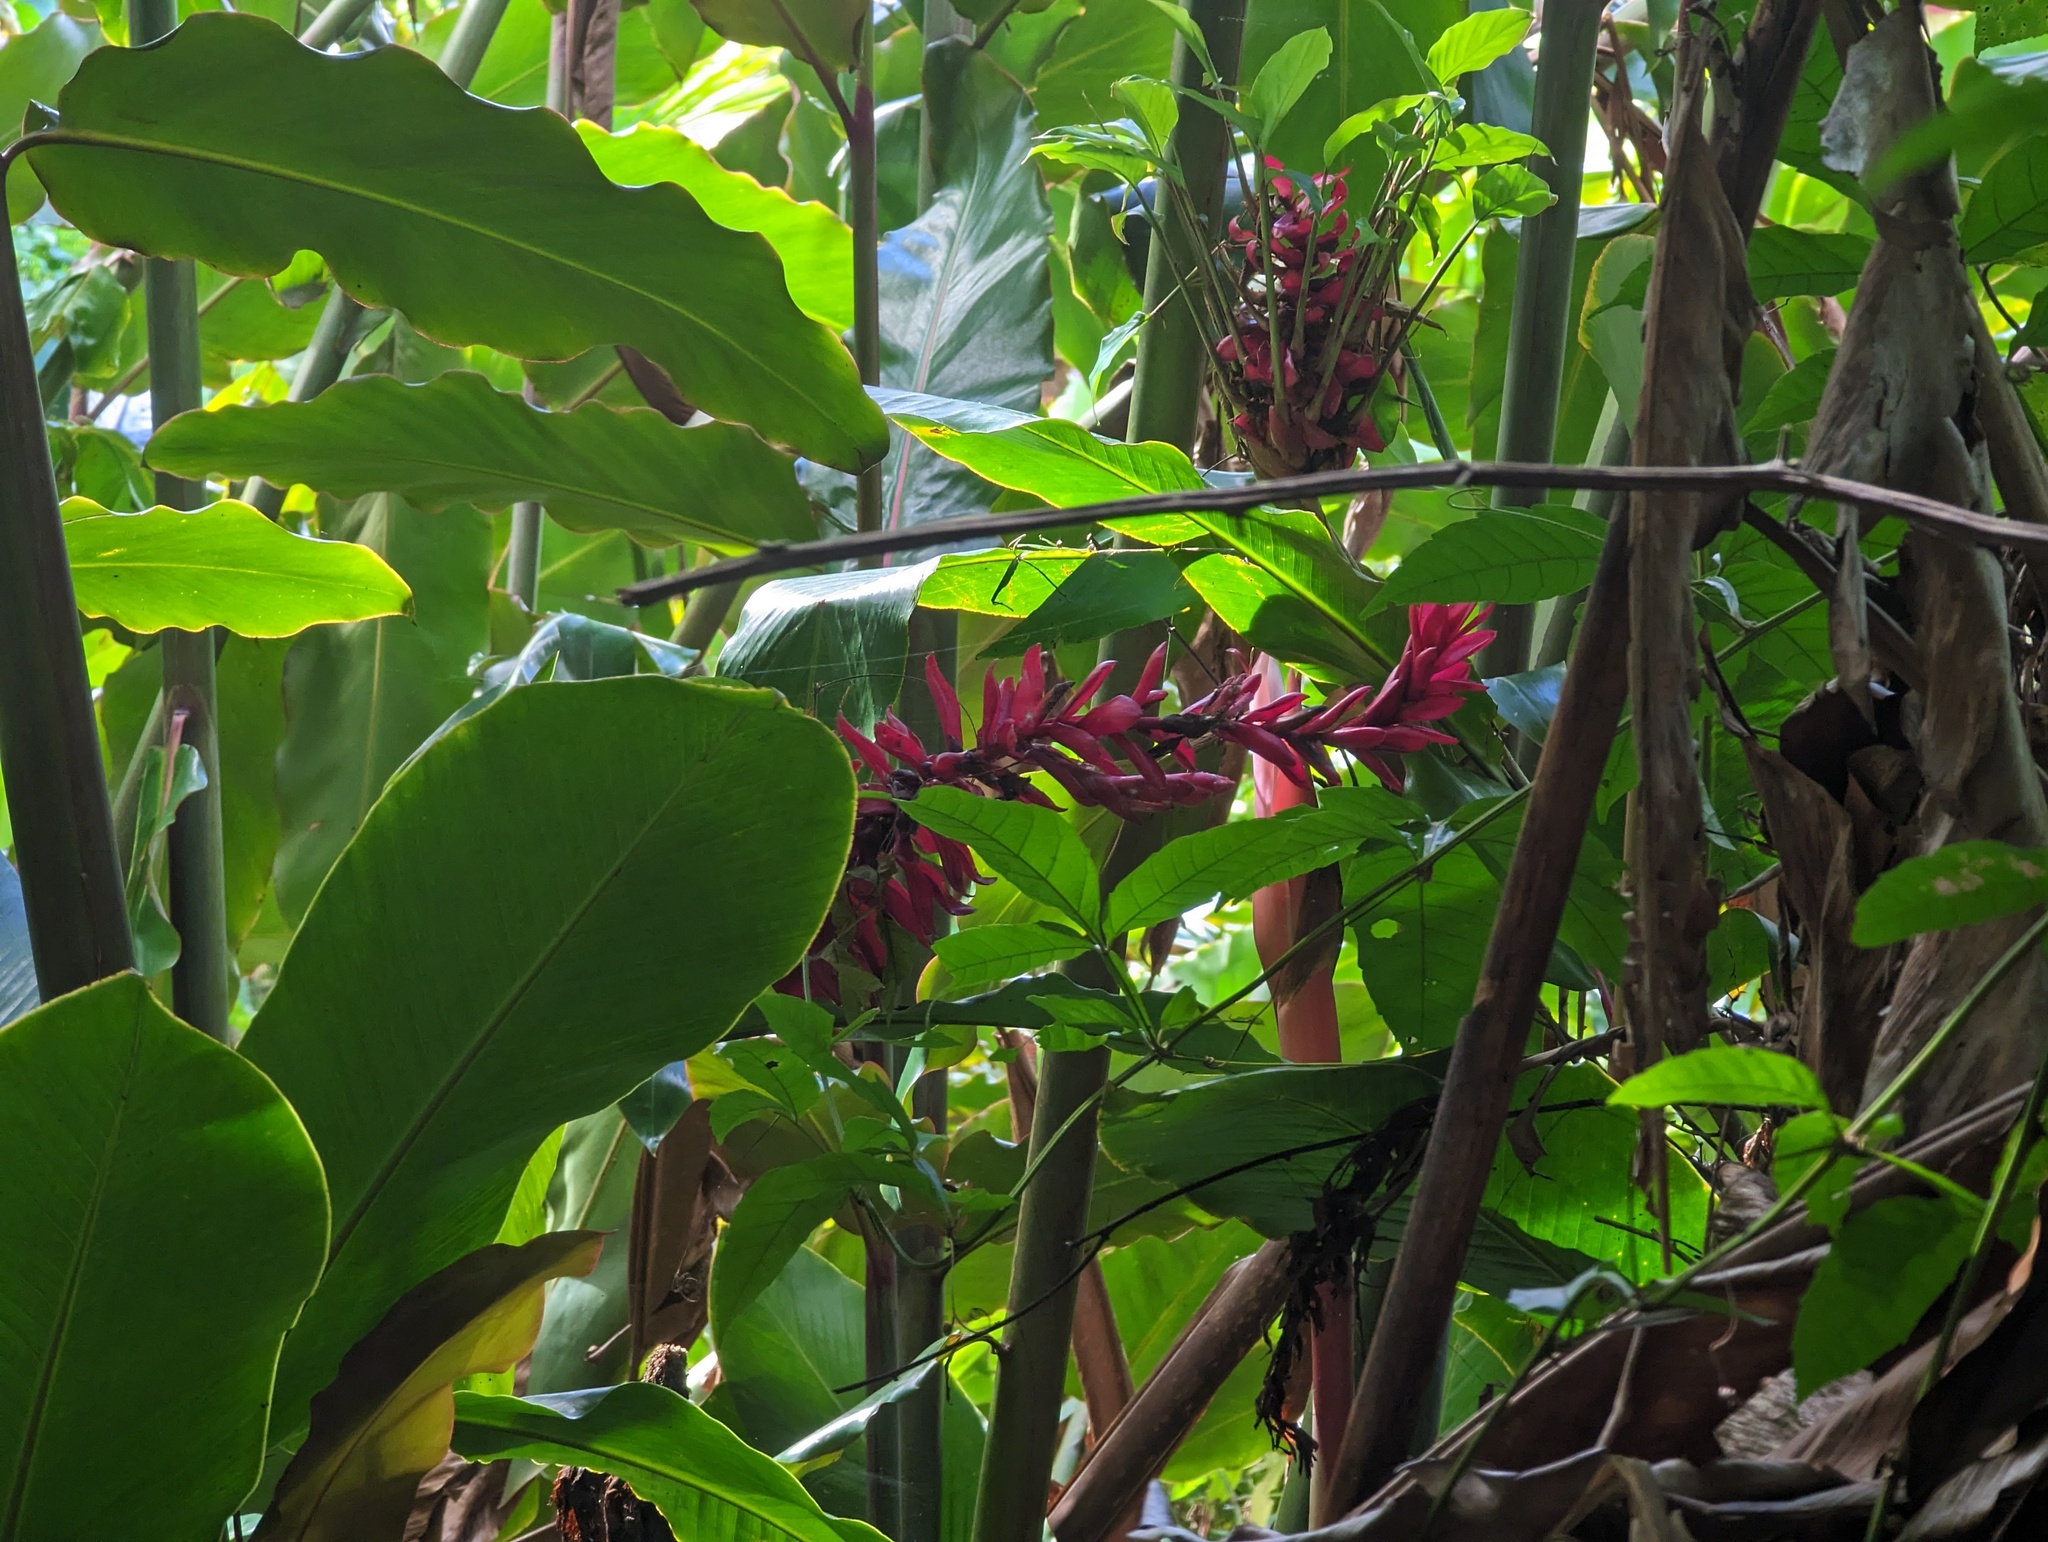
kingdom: Plantae
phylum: Tracheophyta
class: Liliopsida
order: Zingiberales
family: Zingiberaceae
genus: Alpinia
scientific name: Alpinia purpurata
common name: Red ginger
